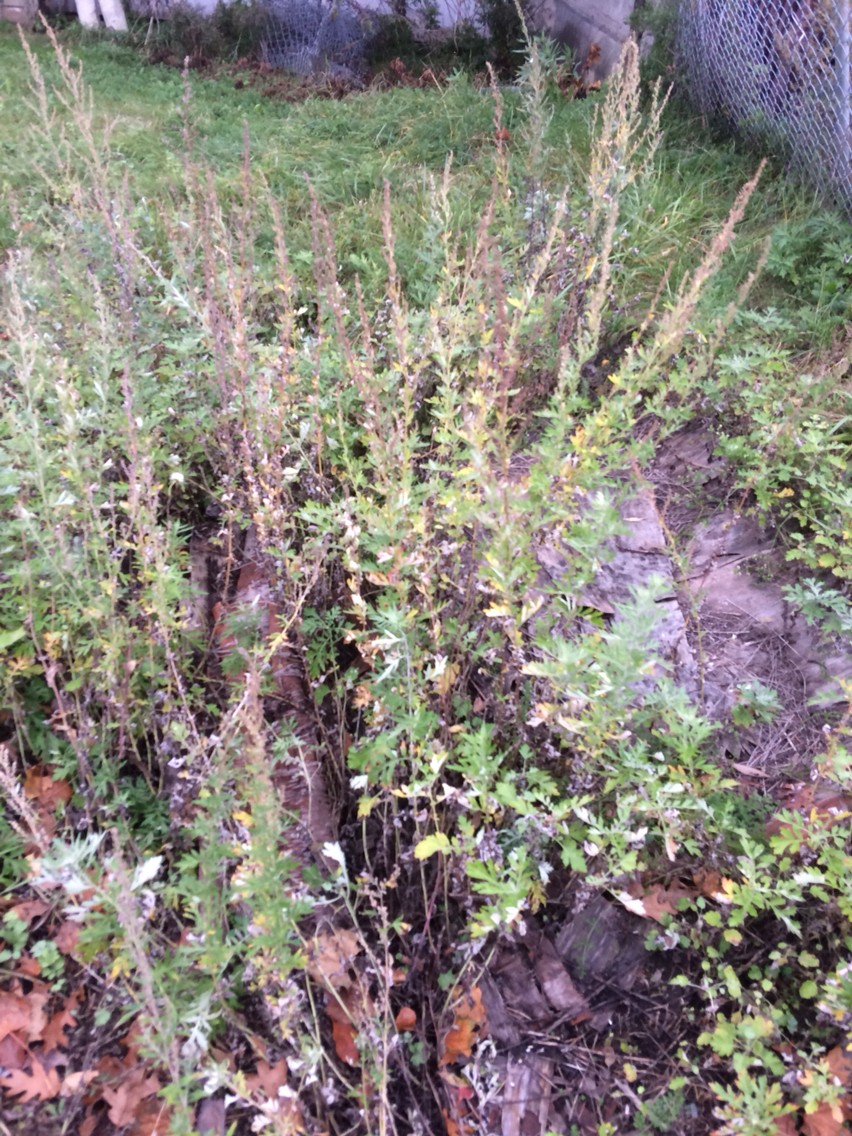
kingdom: Plantae
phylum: Tracheophyta
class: Magnoliopsida
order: Asterales
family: Asteraceae
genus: Artemisia
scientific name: Artemisia vulgaris
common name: Mugwort
